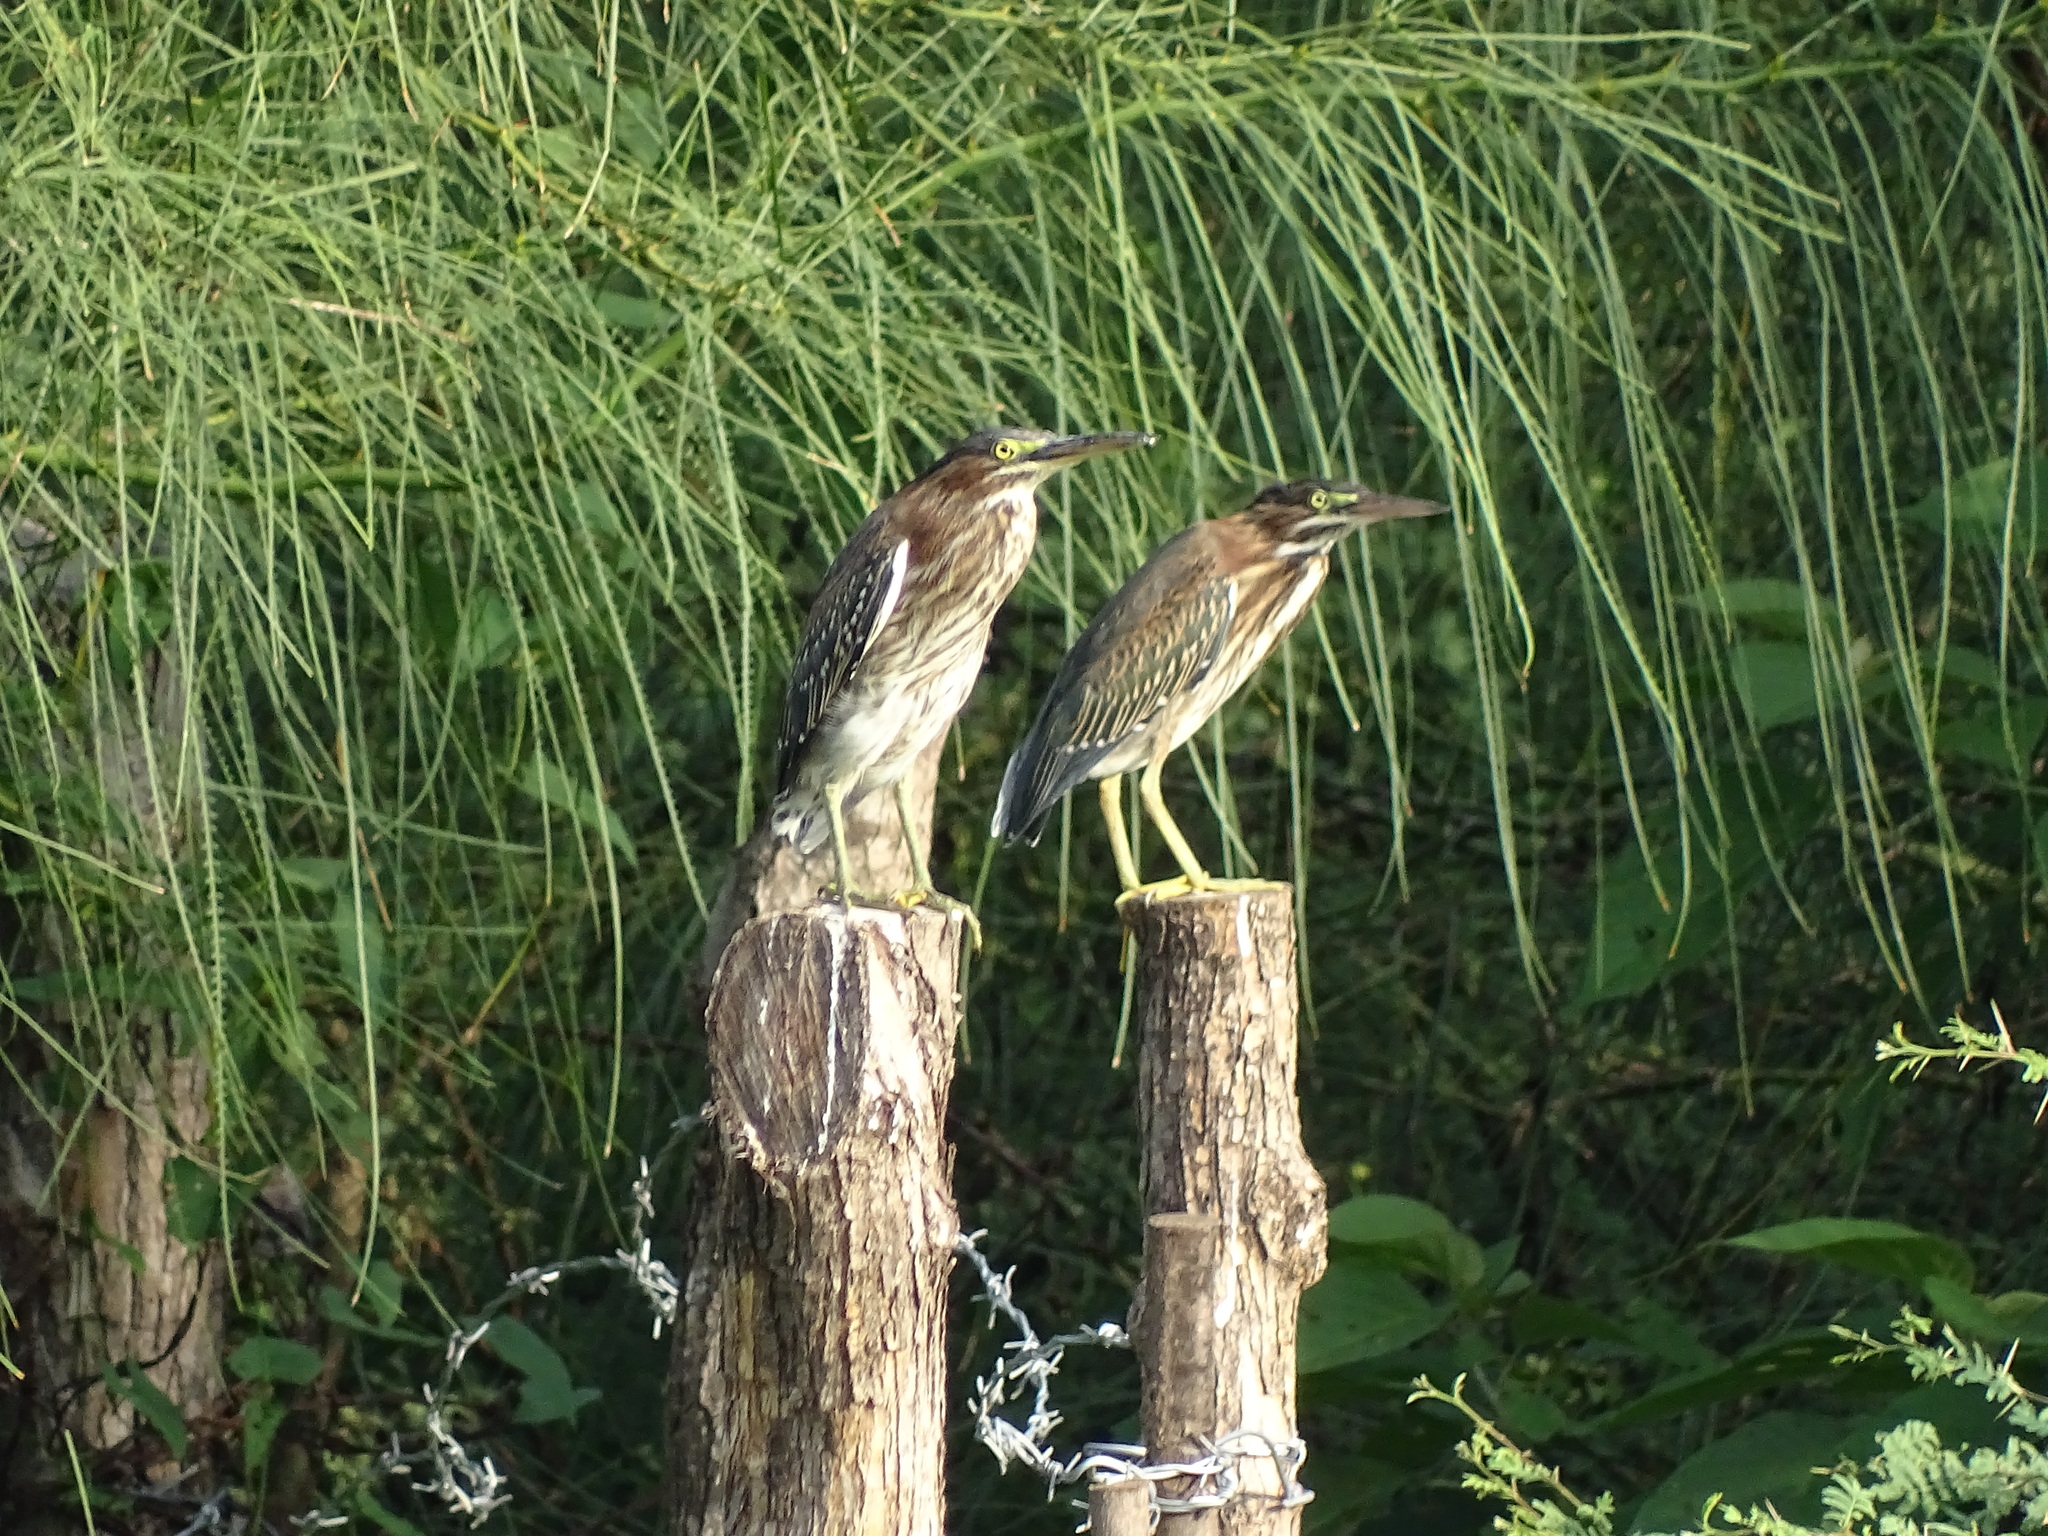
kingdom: Animalia
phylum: Chordata
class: Aves
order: Pelecaniformes
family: Ardeidae
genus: Butorides
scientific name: Butorides virescens
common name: Green heron
